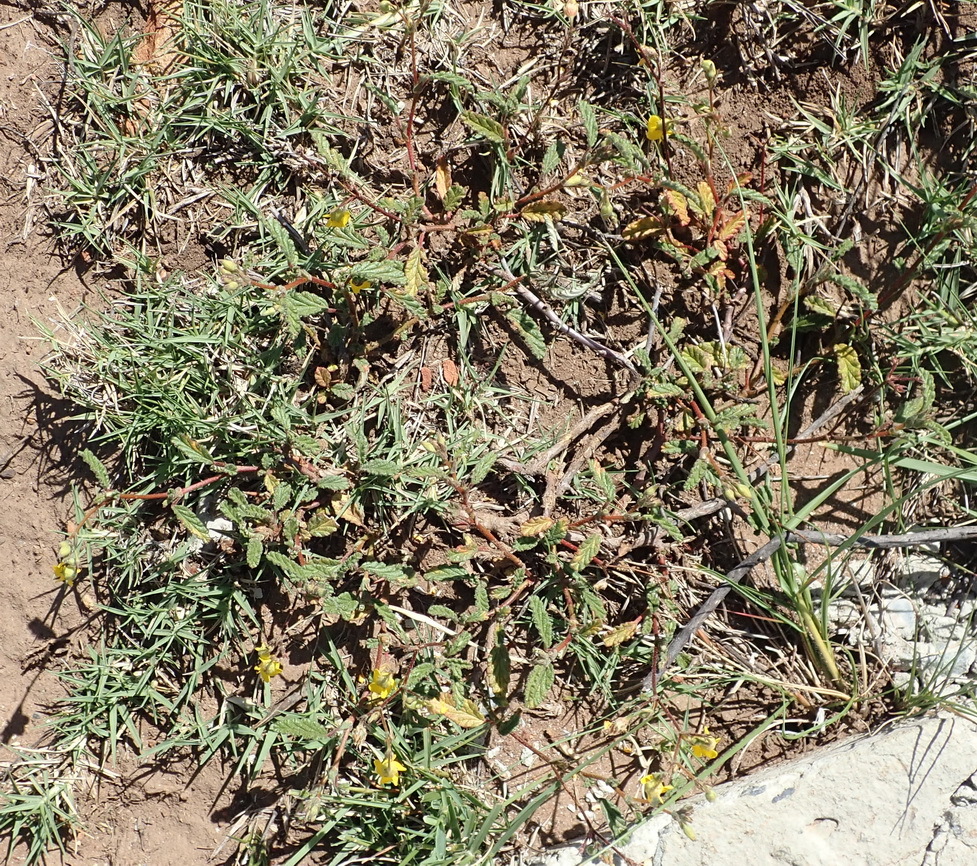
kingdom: Plantae
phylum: Tracheophyta
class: Magnoliopsida
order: Malvales
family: Malvaceae
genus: Hermannia
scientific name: Hermannia althaeoides
